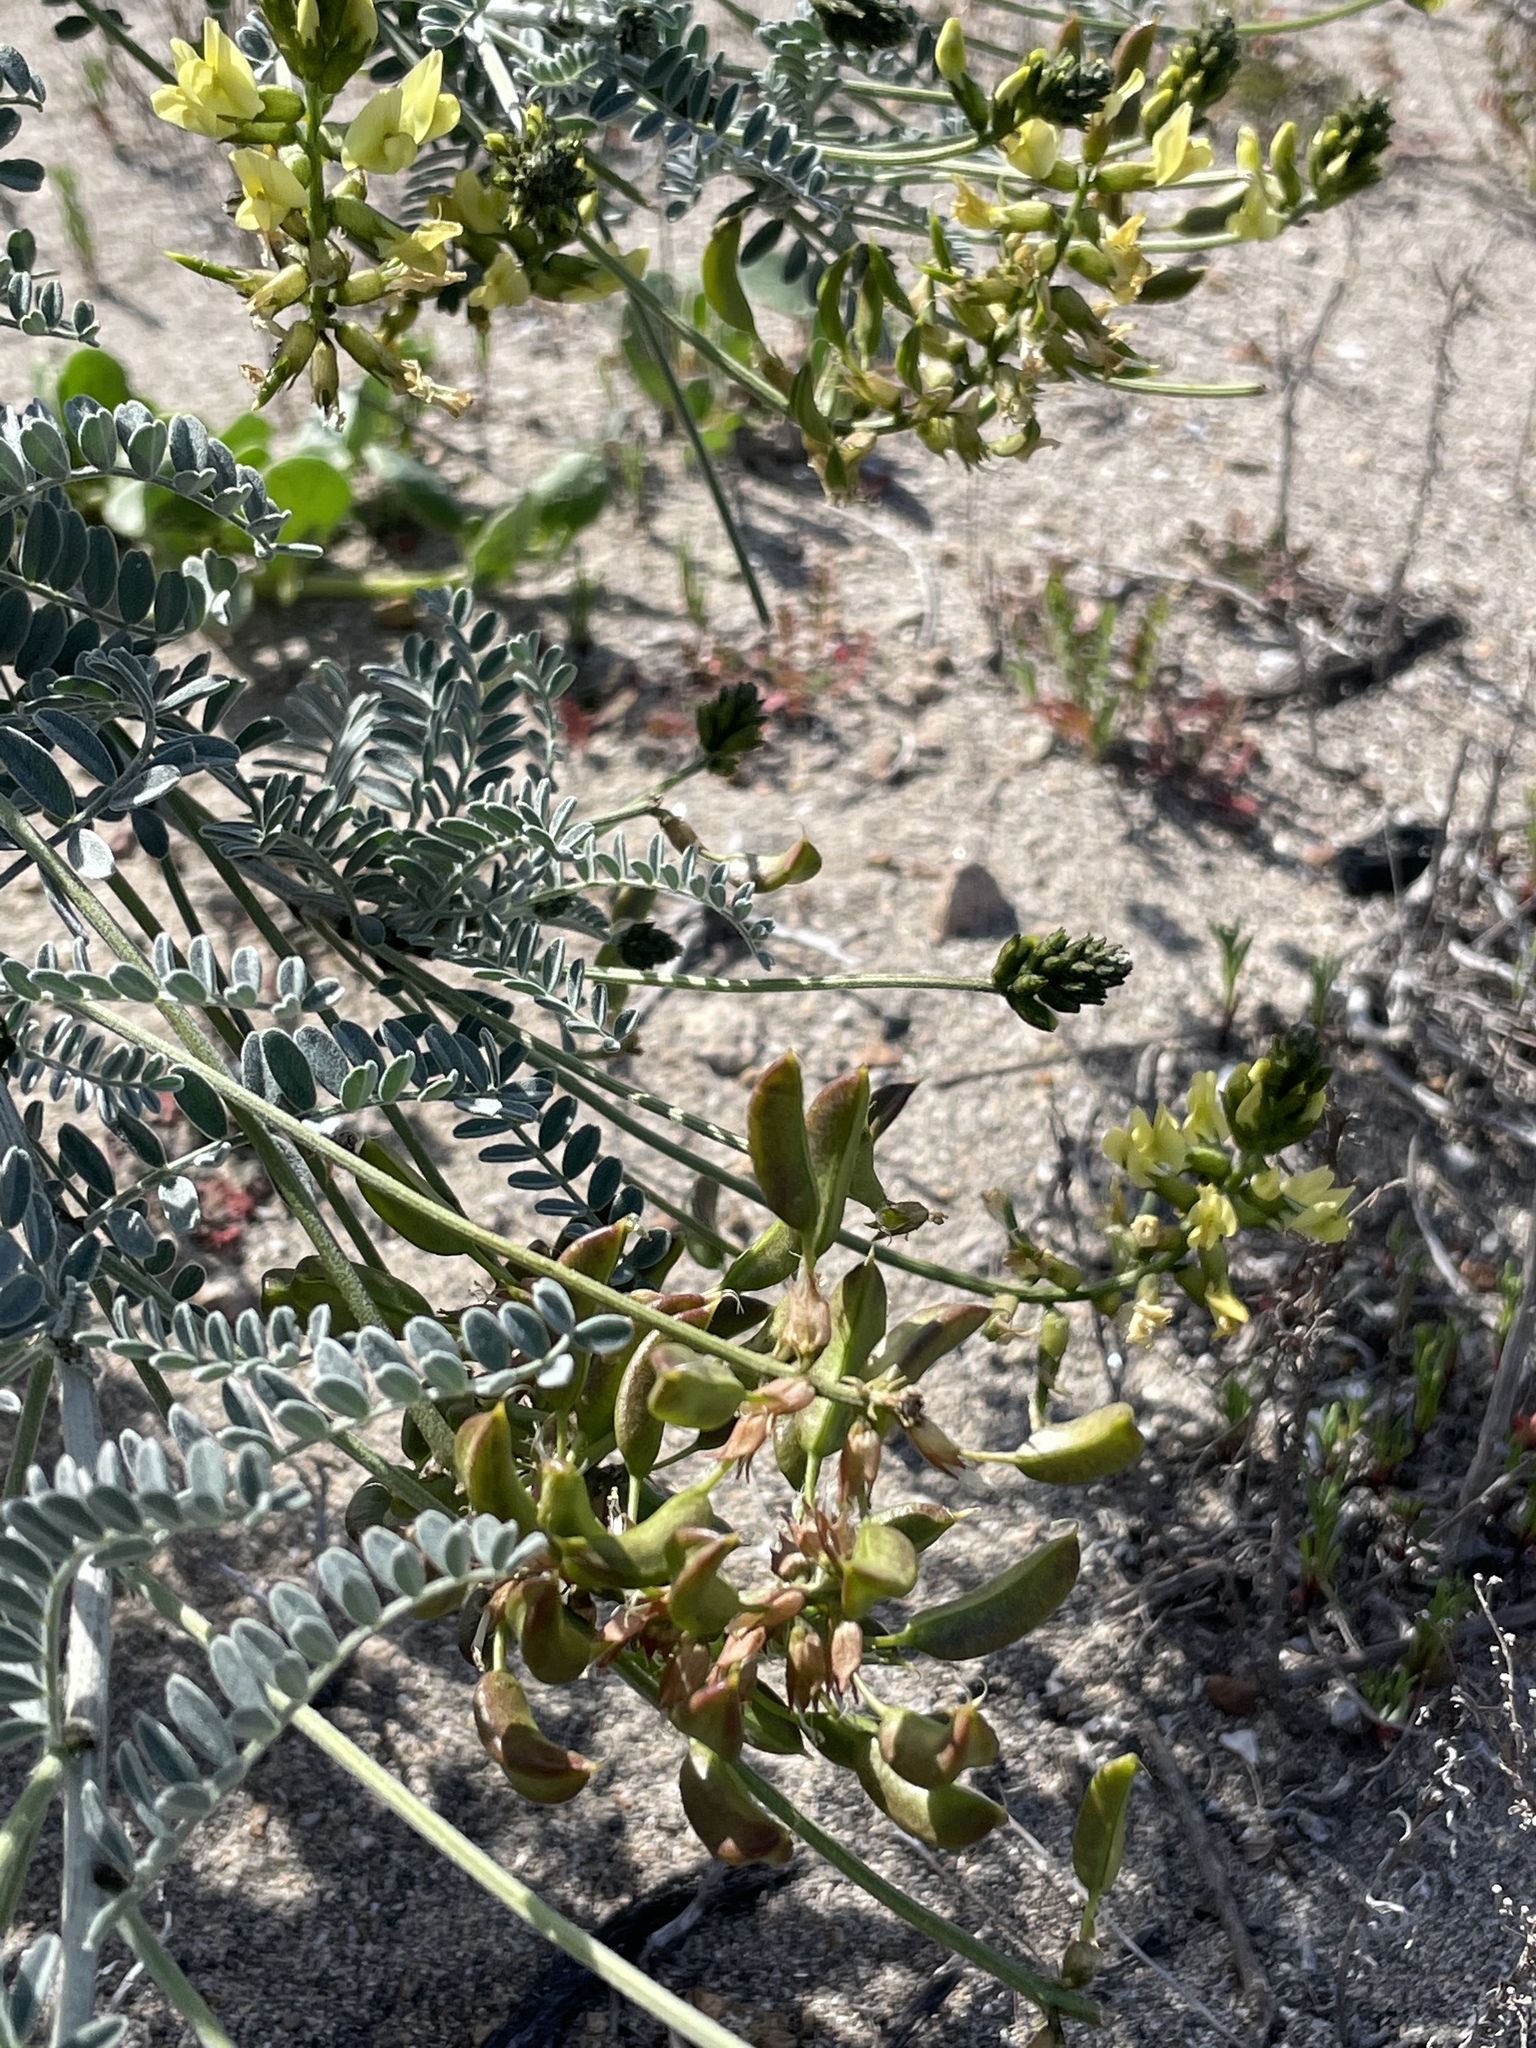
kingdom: Plantae
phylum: Tracheophyta
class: Magnoliopsida
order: Fabales
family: Fabaceae
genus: Astragalus
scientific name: Astragalus nevinii
